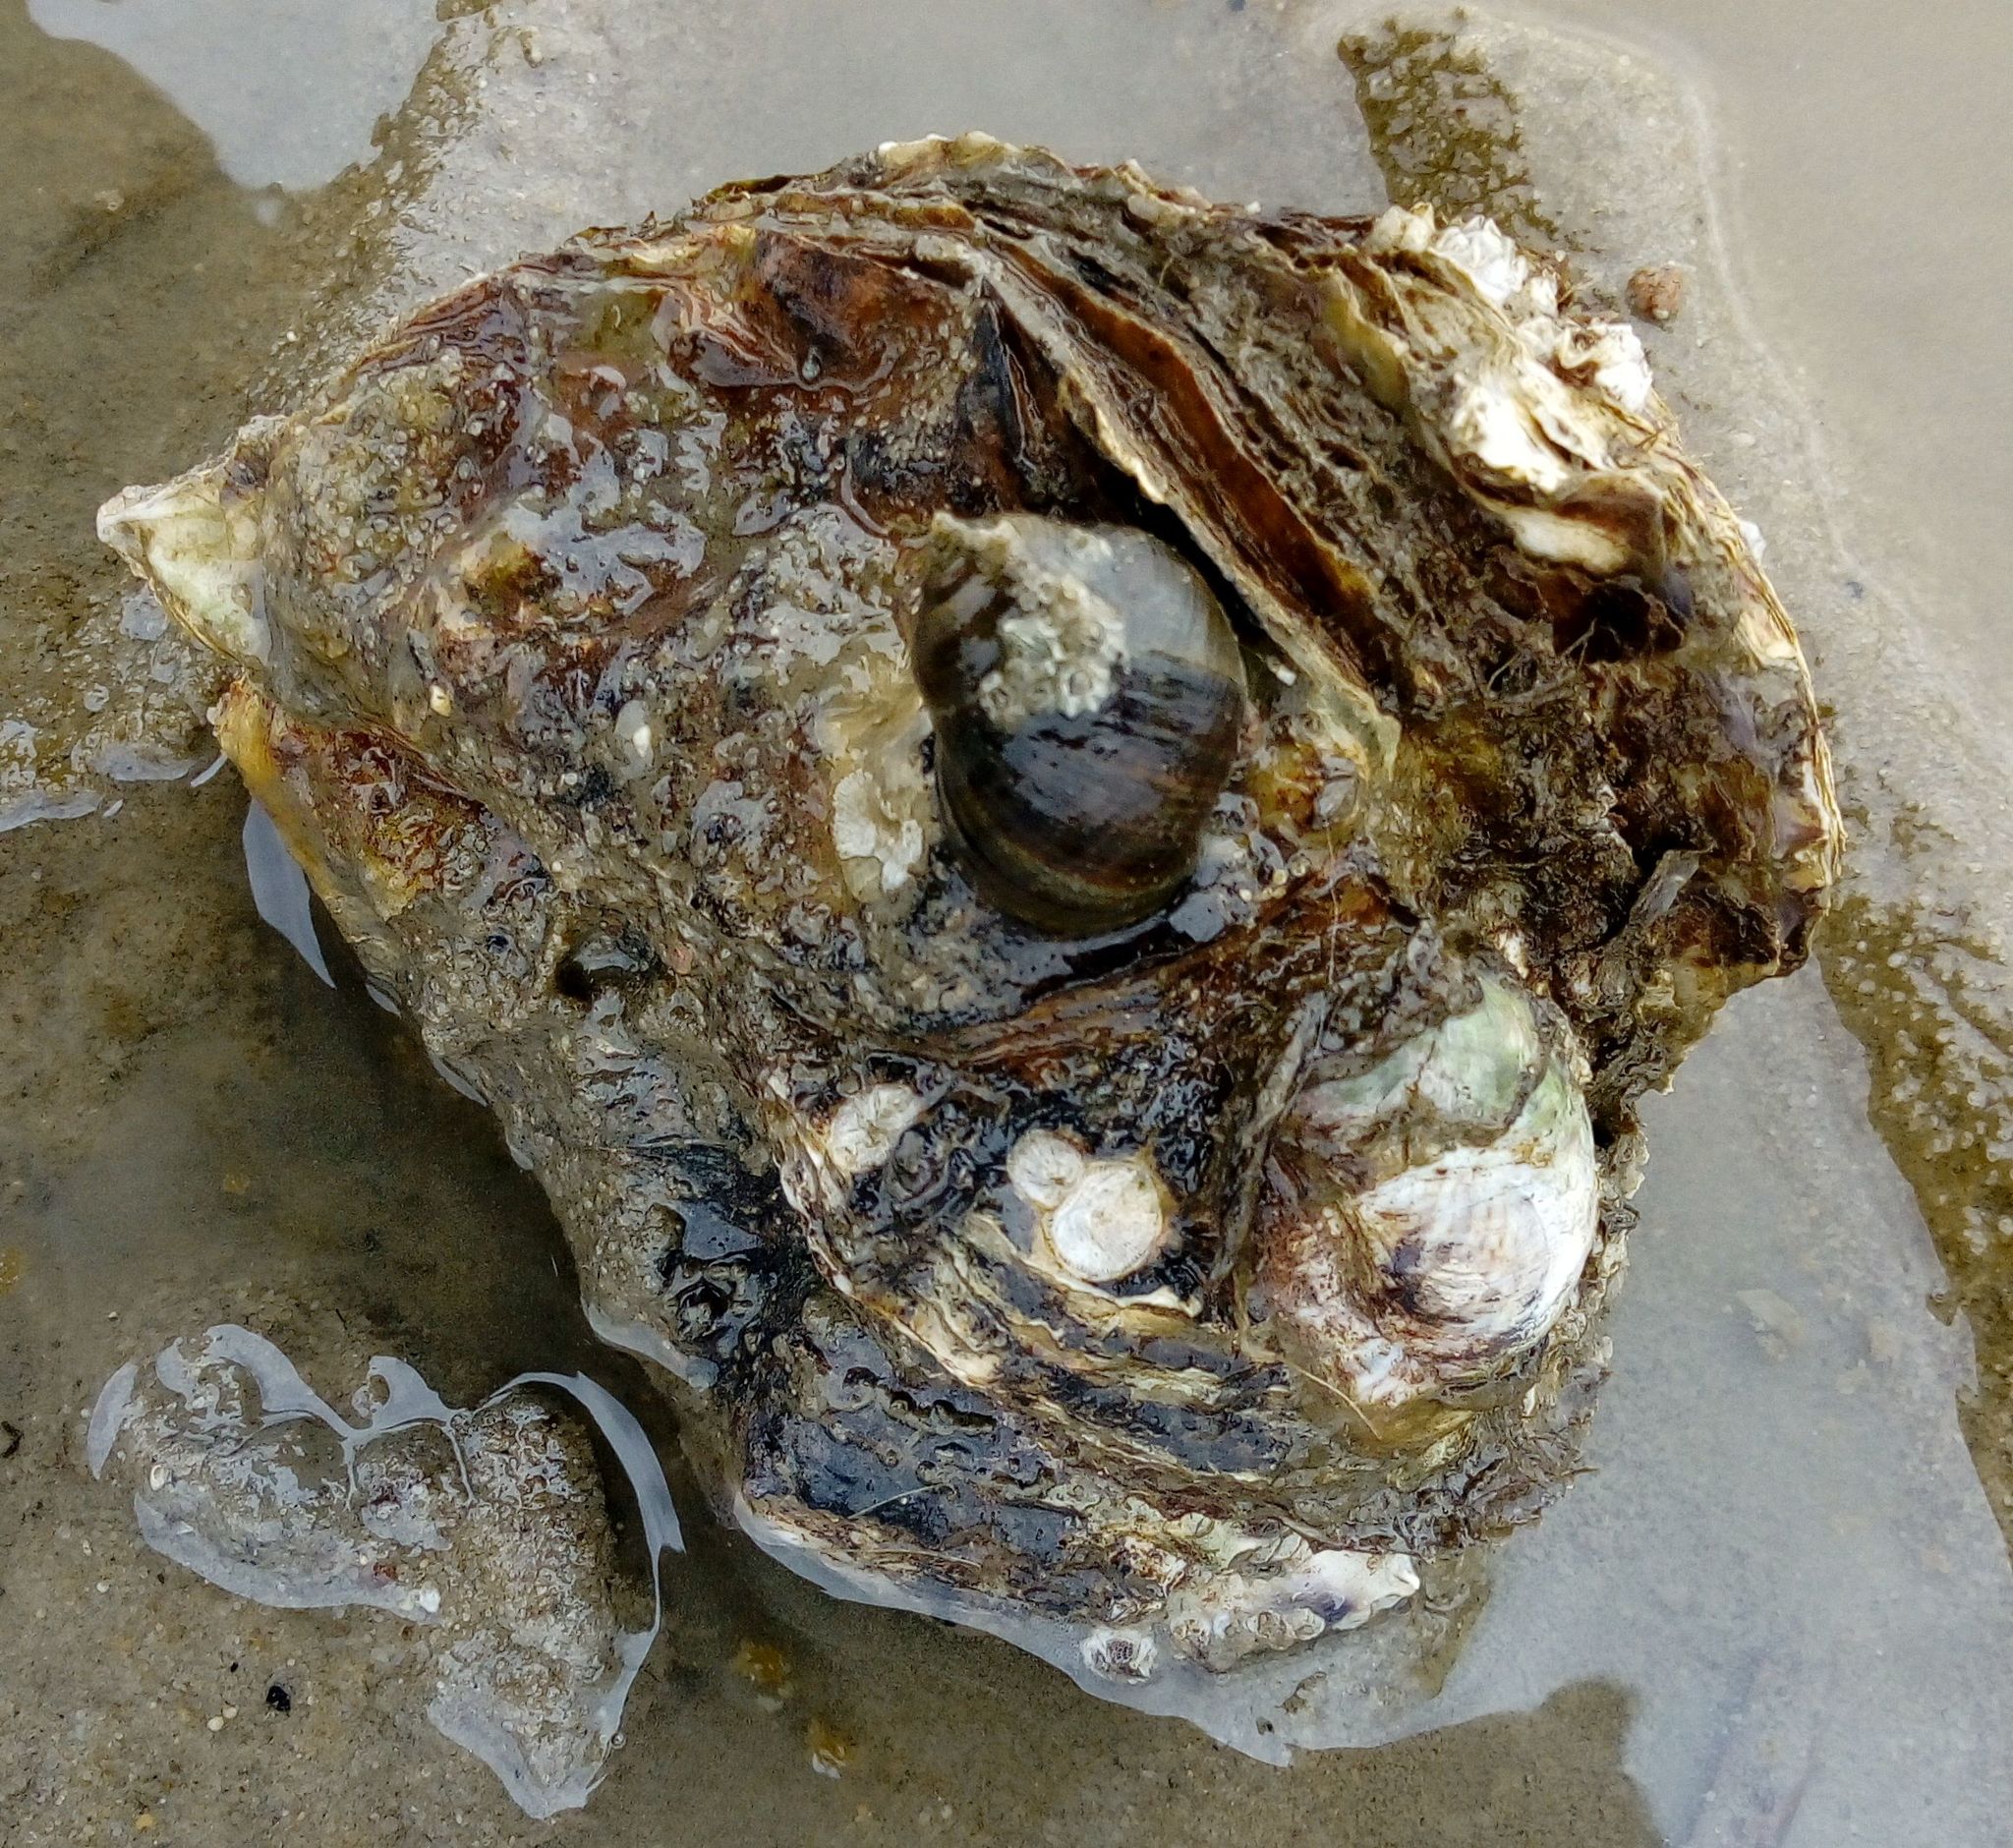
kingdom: Animalia
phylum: Mollusca
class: Bivalvia
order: Ostreida
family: Ostreidae
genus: Magallana
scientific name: Magallana gigas
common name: Pacific oyster
